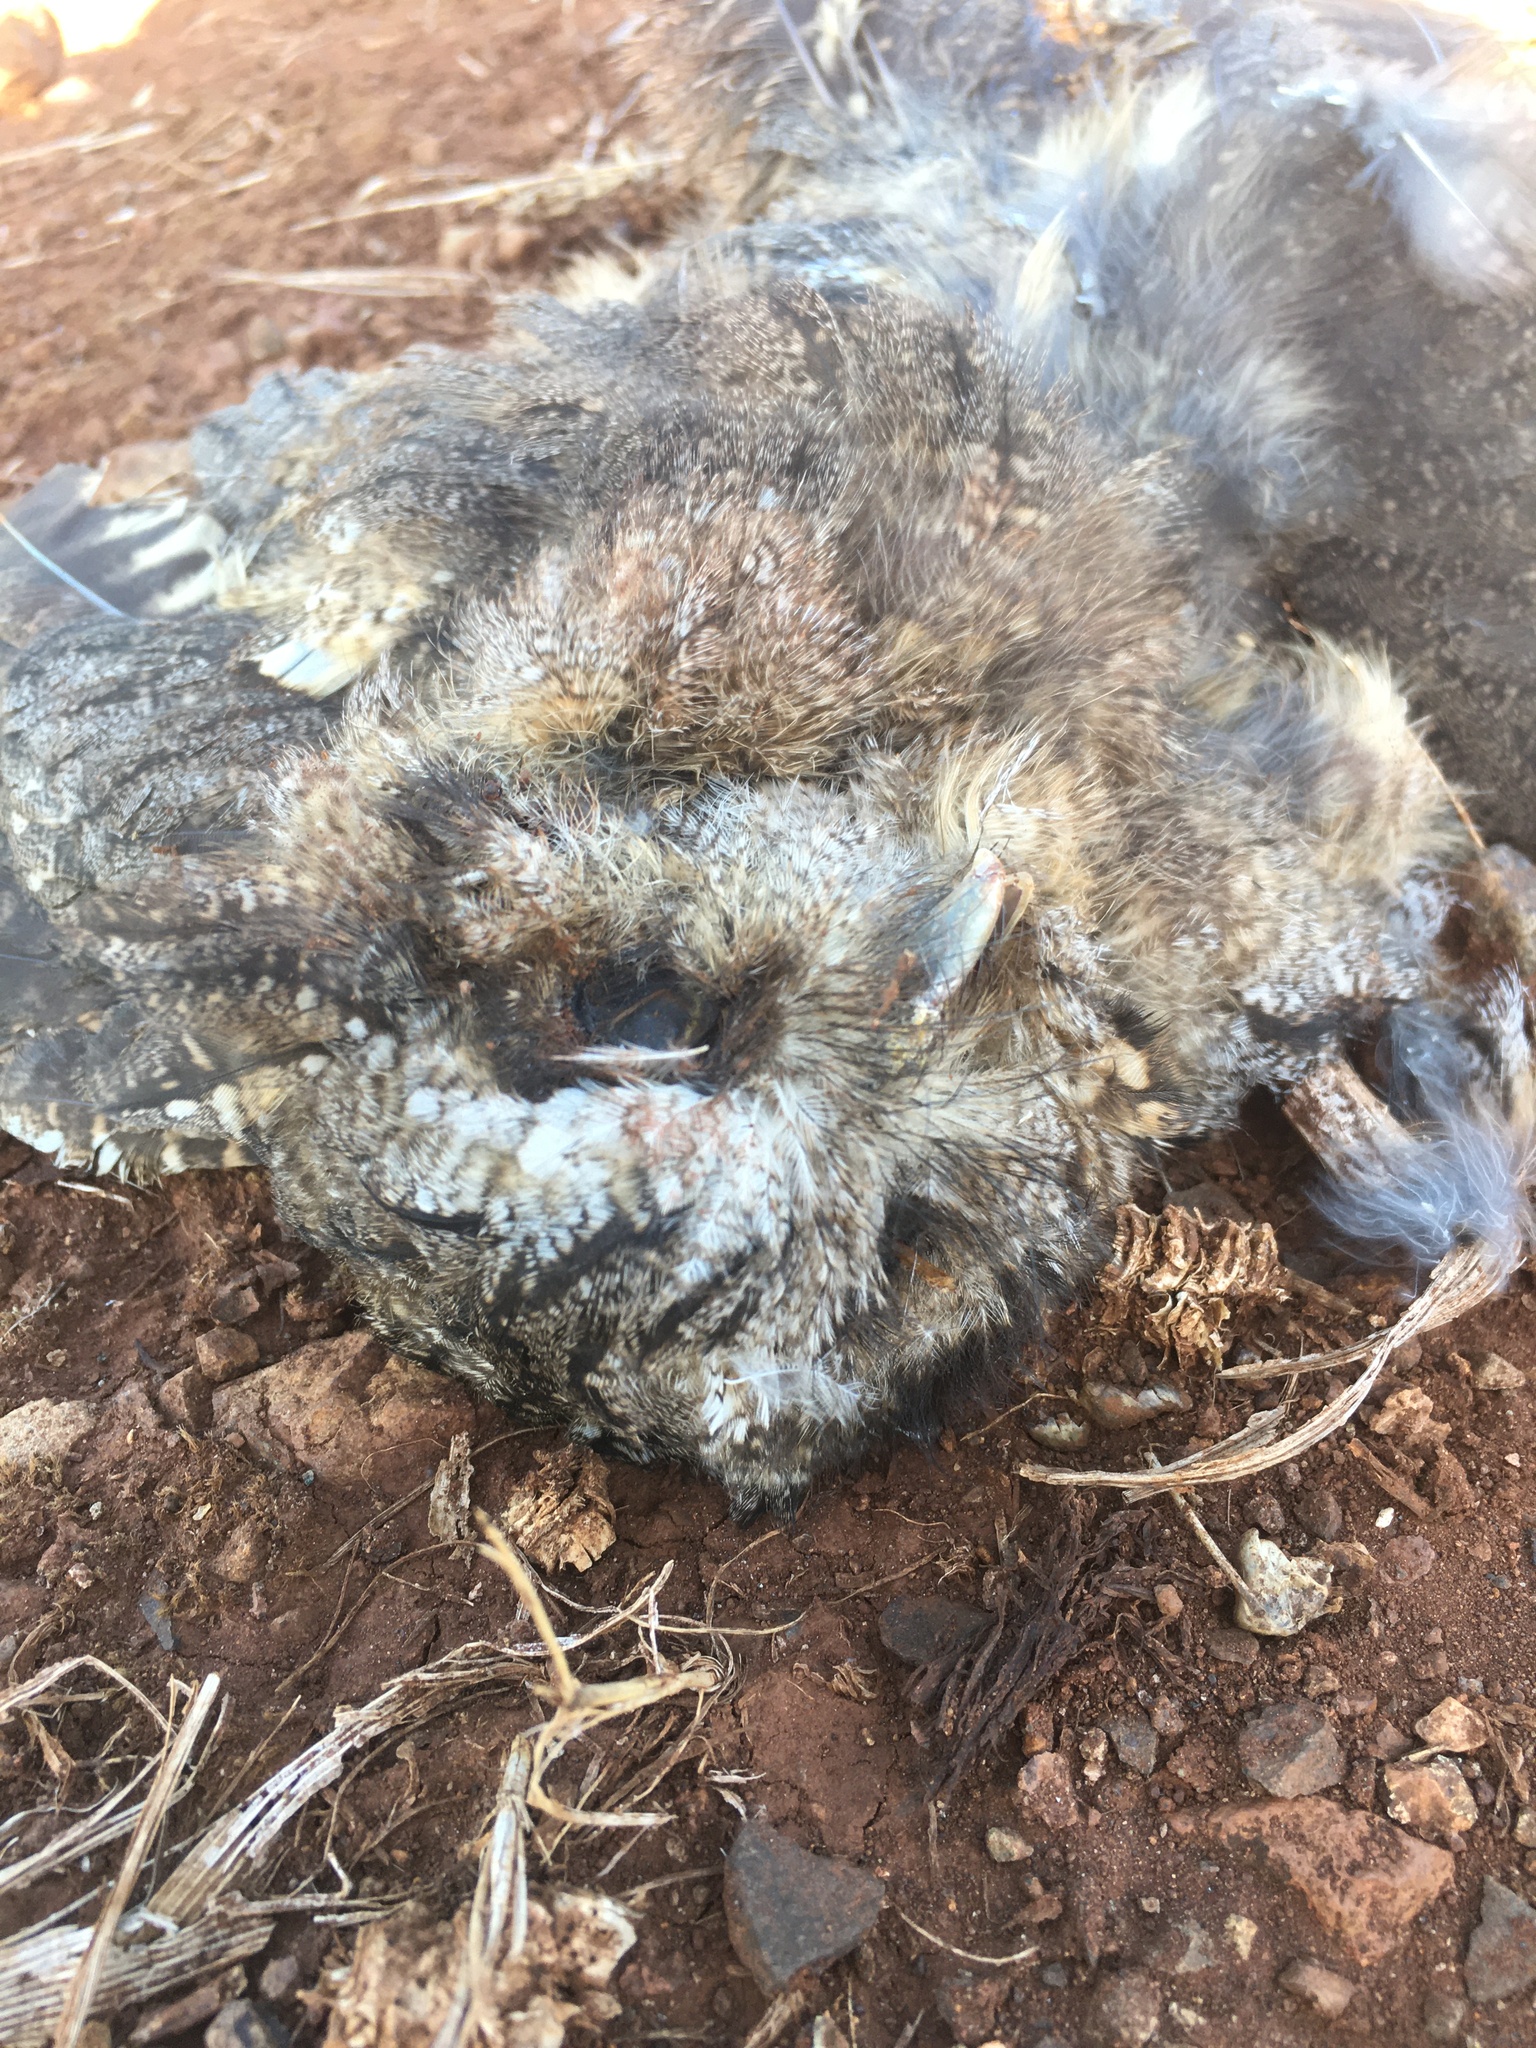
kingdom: Animalia
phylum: Chordata
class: Aves
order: Strigiformes
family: Strigidae
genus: Megascops
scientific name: Megascops choliba
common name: Tropical screech-owl
